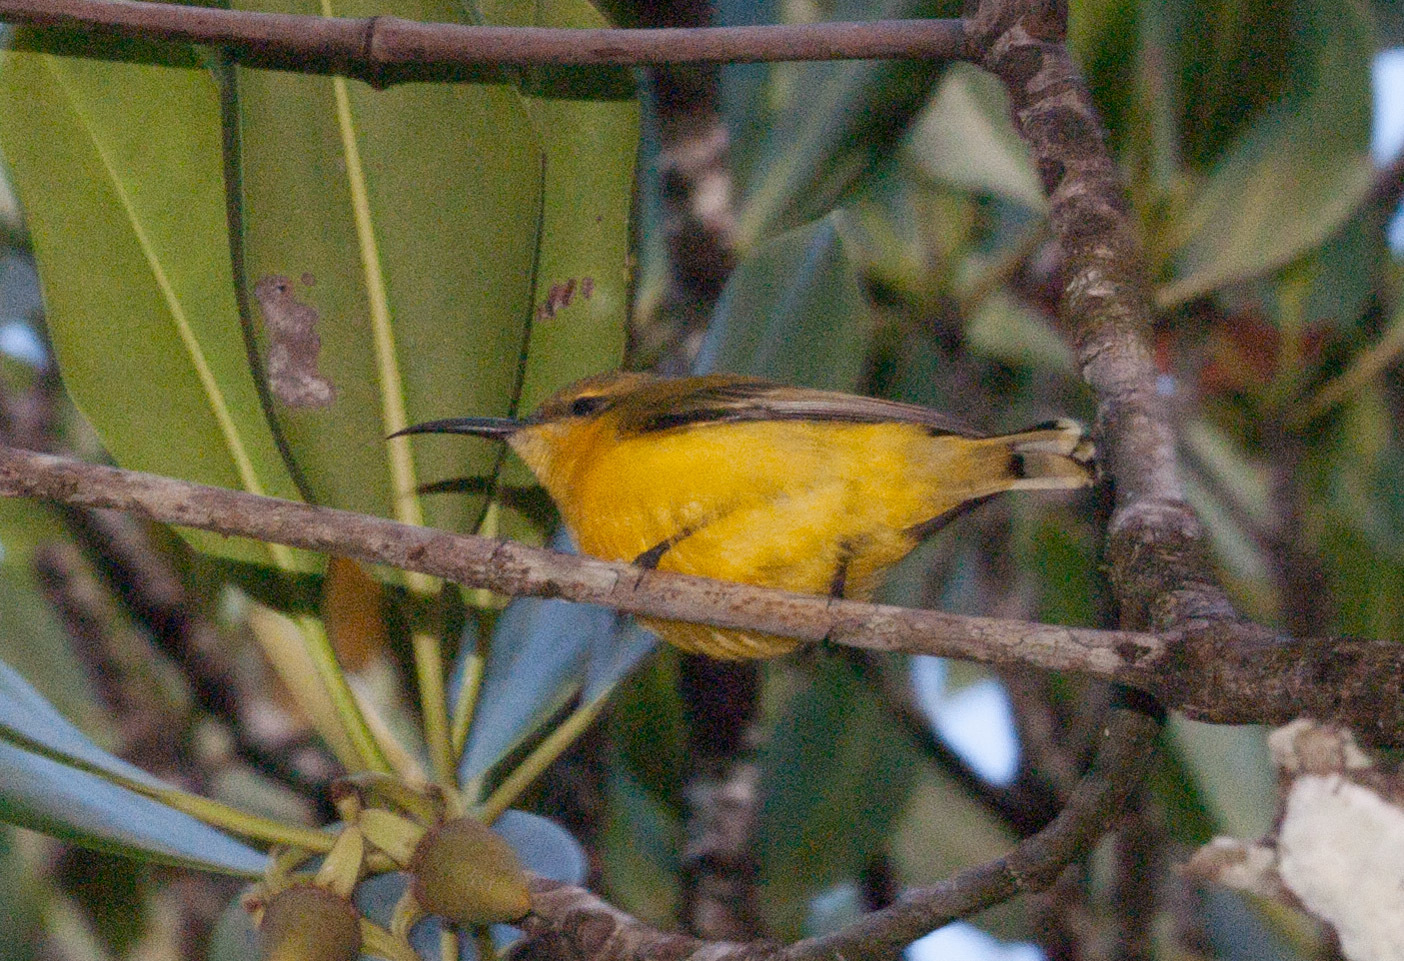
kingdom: Animalia
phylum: Chordata
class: Aves
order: Passeriformes
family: Nectariniidae
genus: Cinnyris
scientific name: Cinnyris
